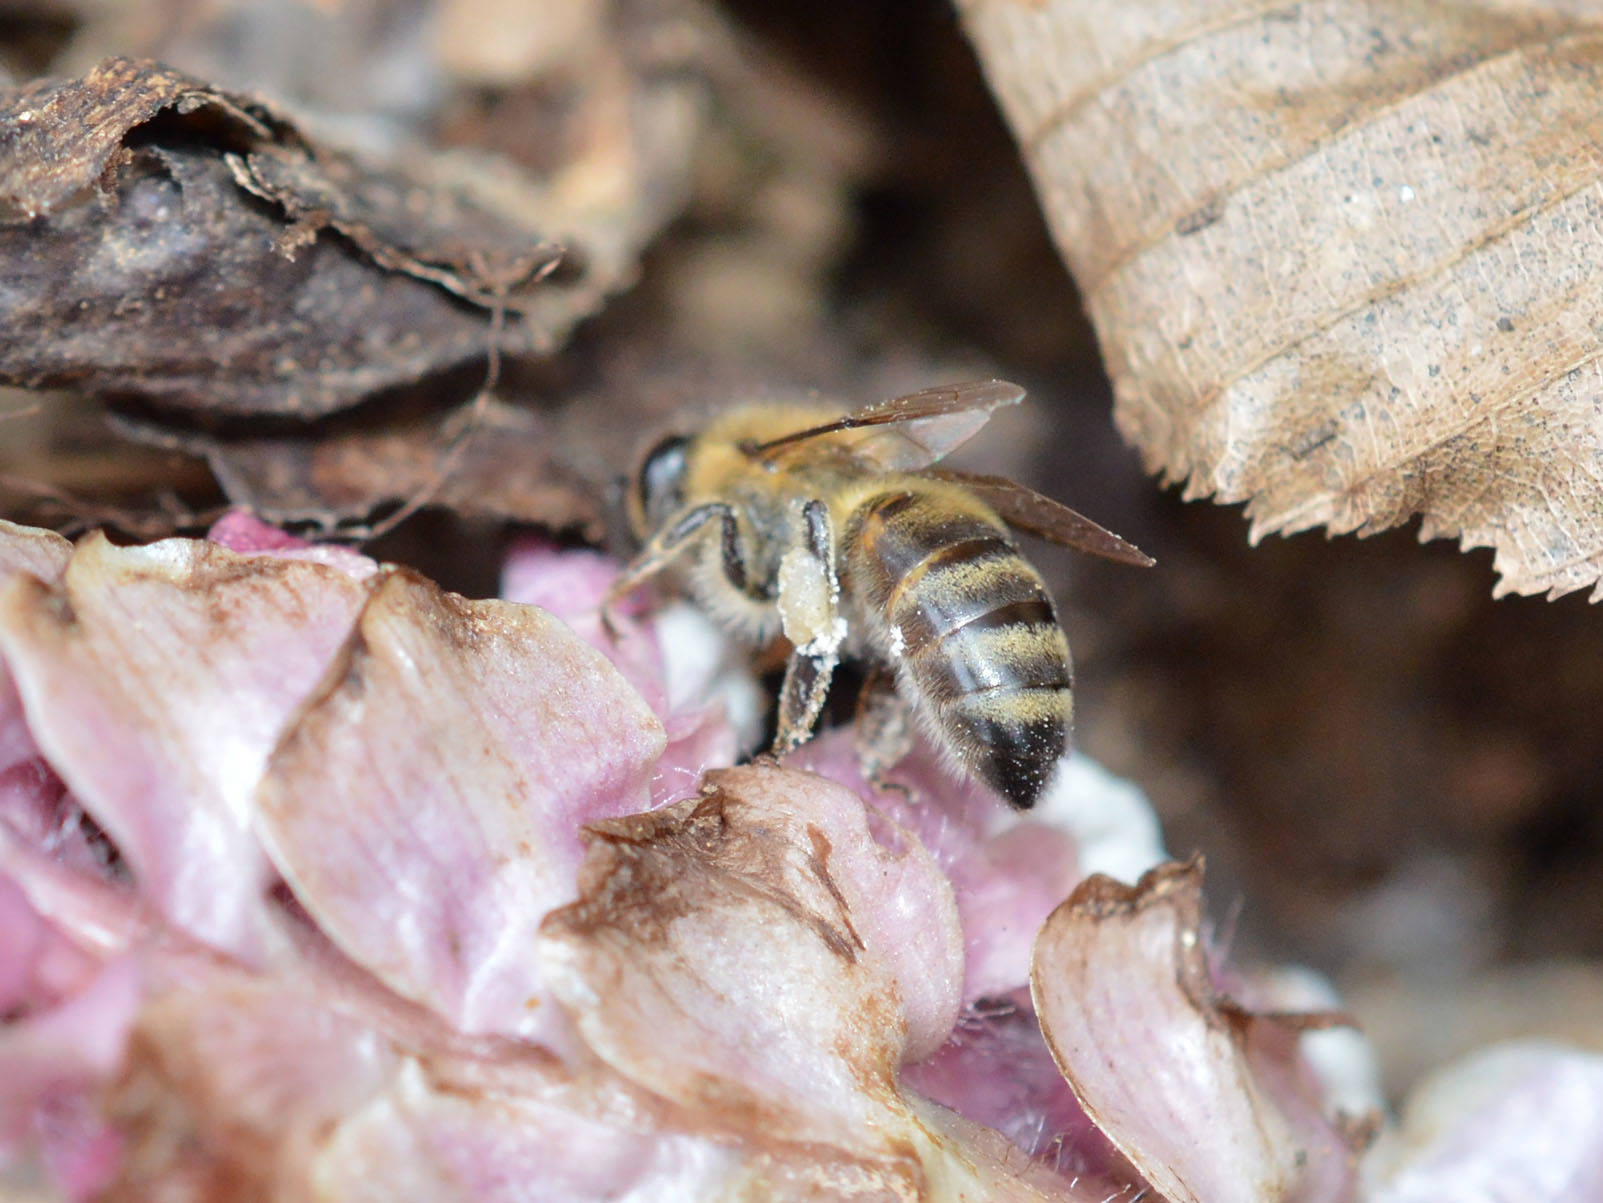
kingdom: Animalia
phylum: Arthropoda
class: Insecta
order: Hymenoptera
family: Apidae
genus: Apis
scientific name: Apis mellifera
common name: Honey bee
